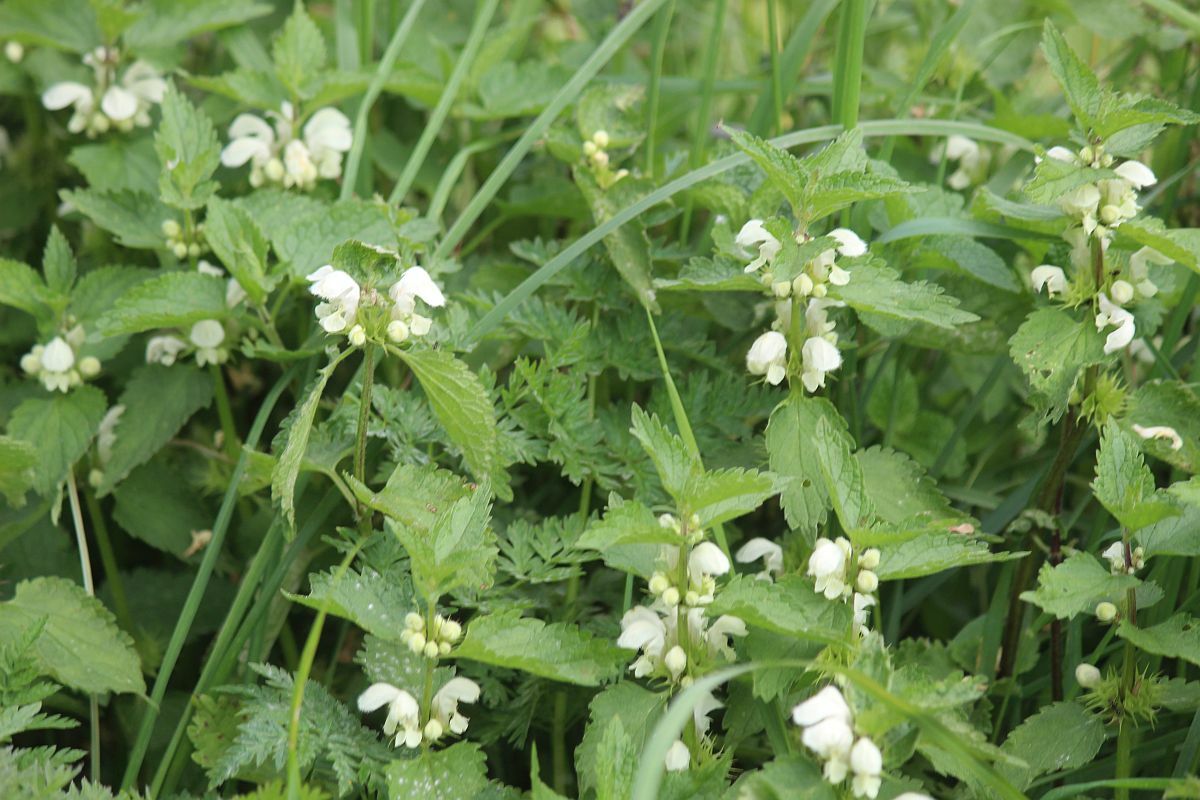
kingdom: Plantae
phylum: Tracheophyta
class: Magnoliopsida
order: Lamiales
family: Lamiaceae
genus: Lamium
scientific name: Lamium album
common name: White dead-nettle
